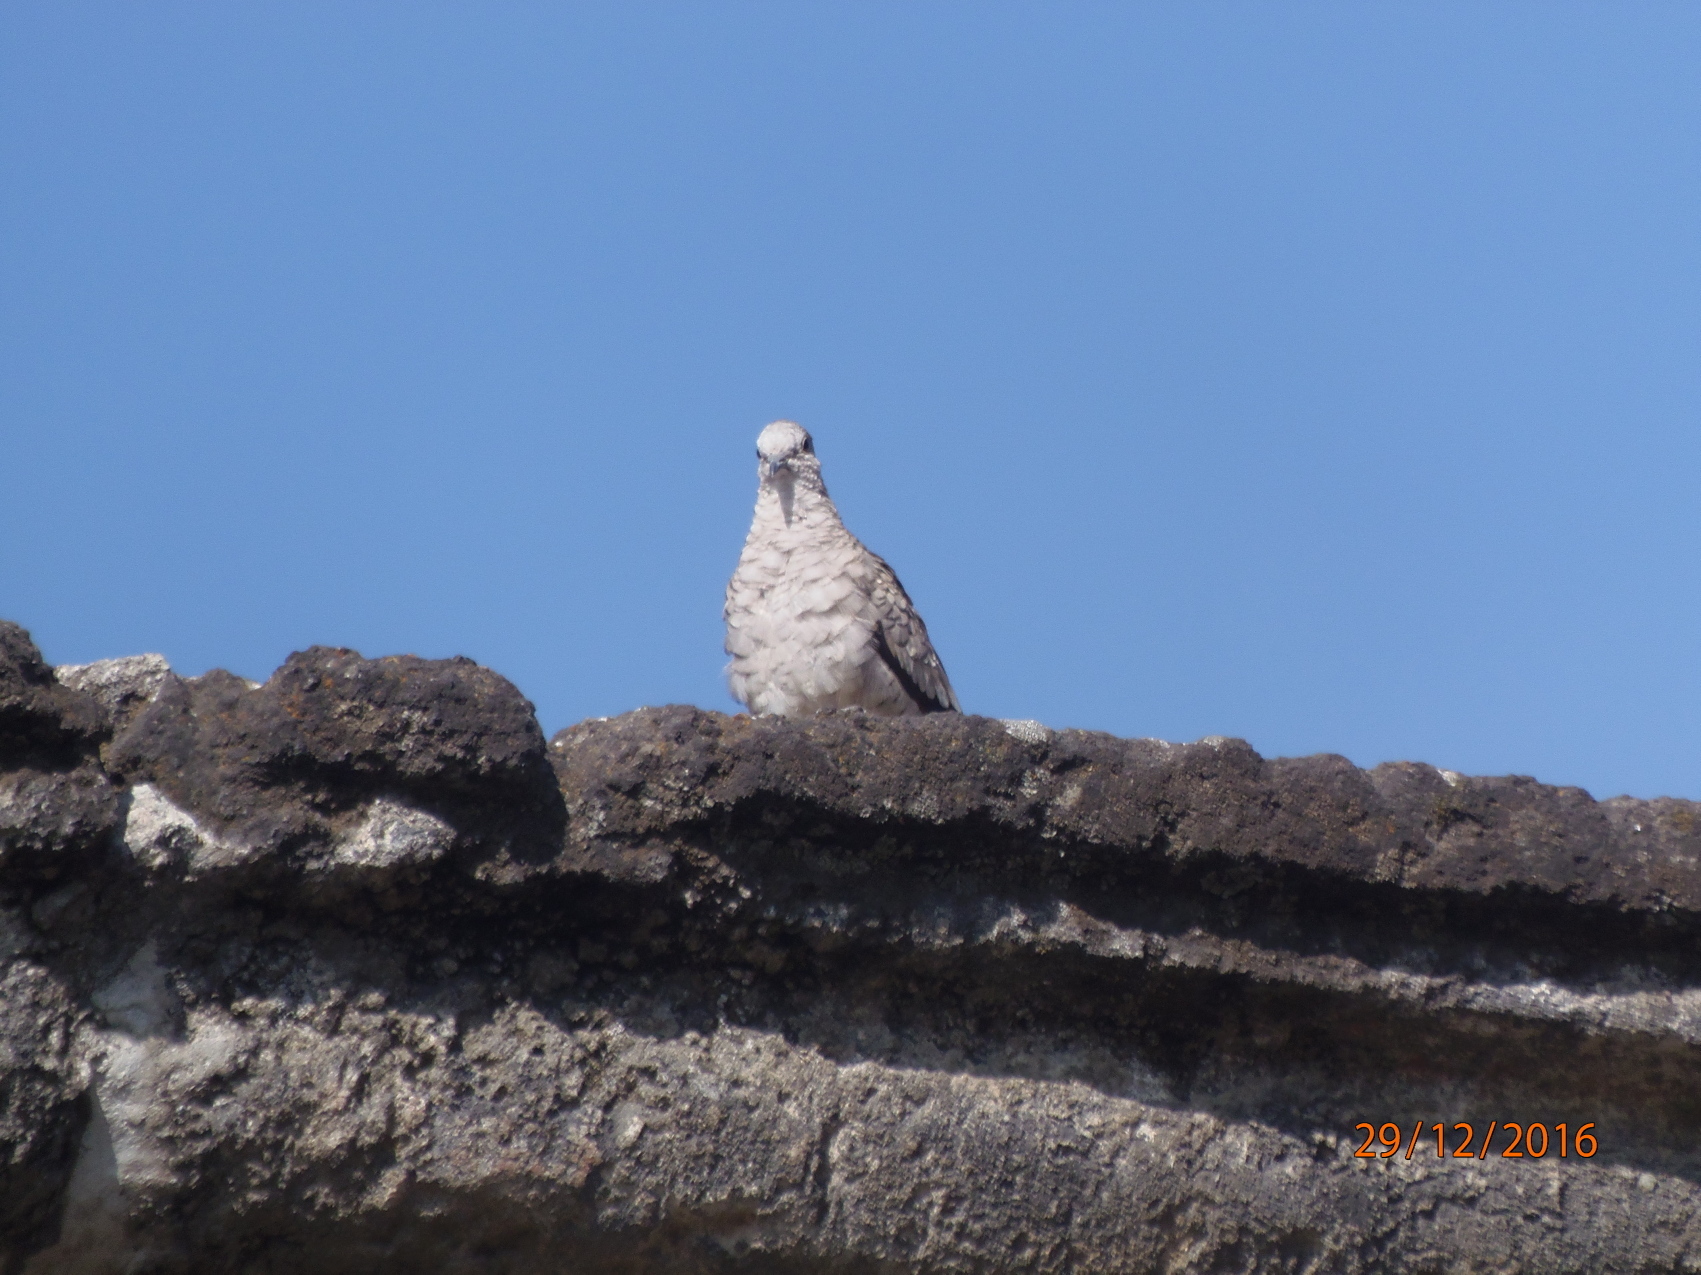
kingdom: Animalia
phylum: Chordata
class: Aves
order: Columbiformes
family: Columbidae
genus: Columbina
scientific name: Columbina inca
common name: Inca dove
